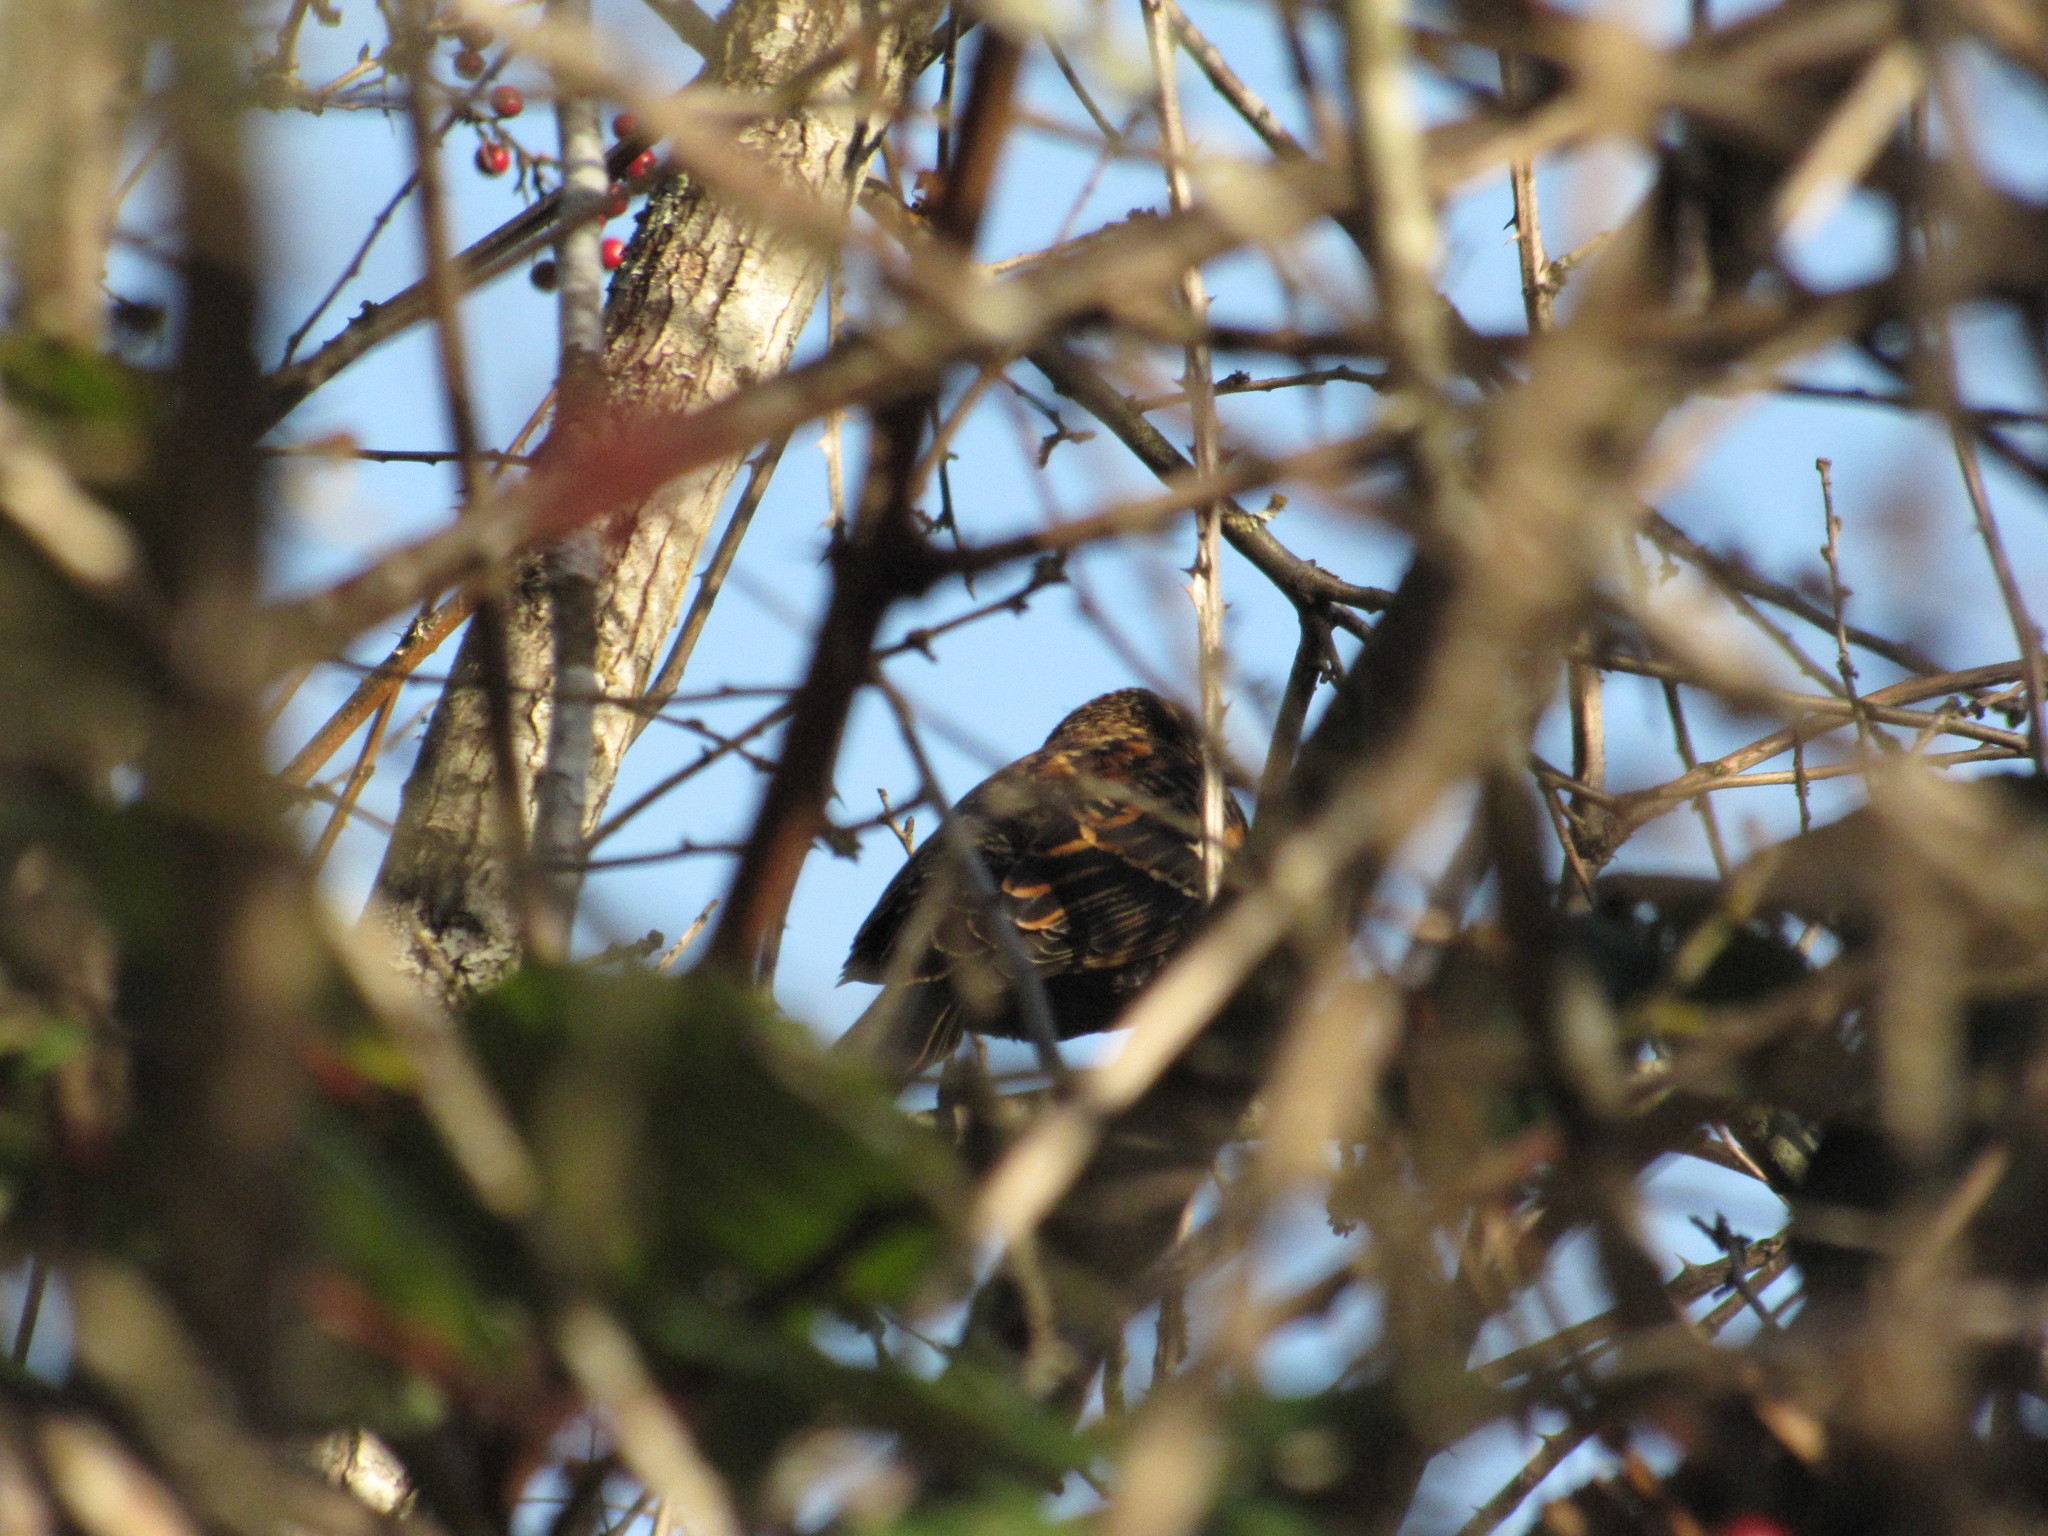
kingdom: Animalia
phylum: Chordata
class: Aves
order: Passeriformes
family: Icteridae
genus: Agelaius
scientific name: Agelaius phoeniceus
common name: Red-winged blackbird
